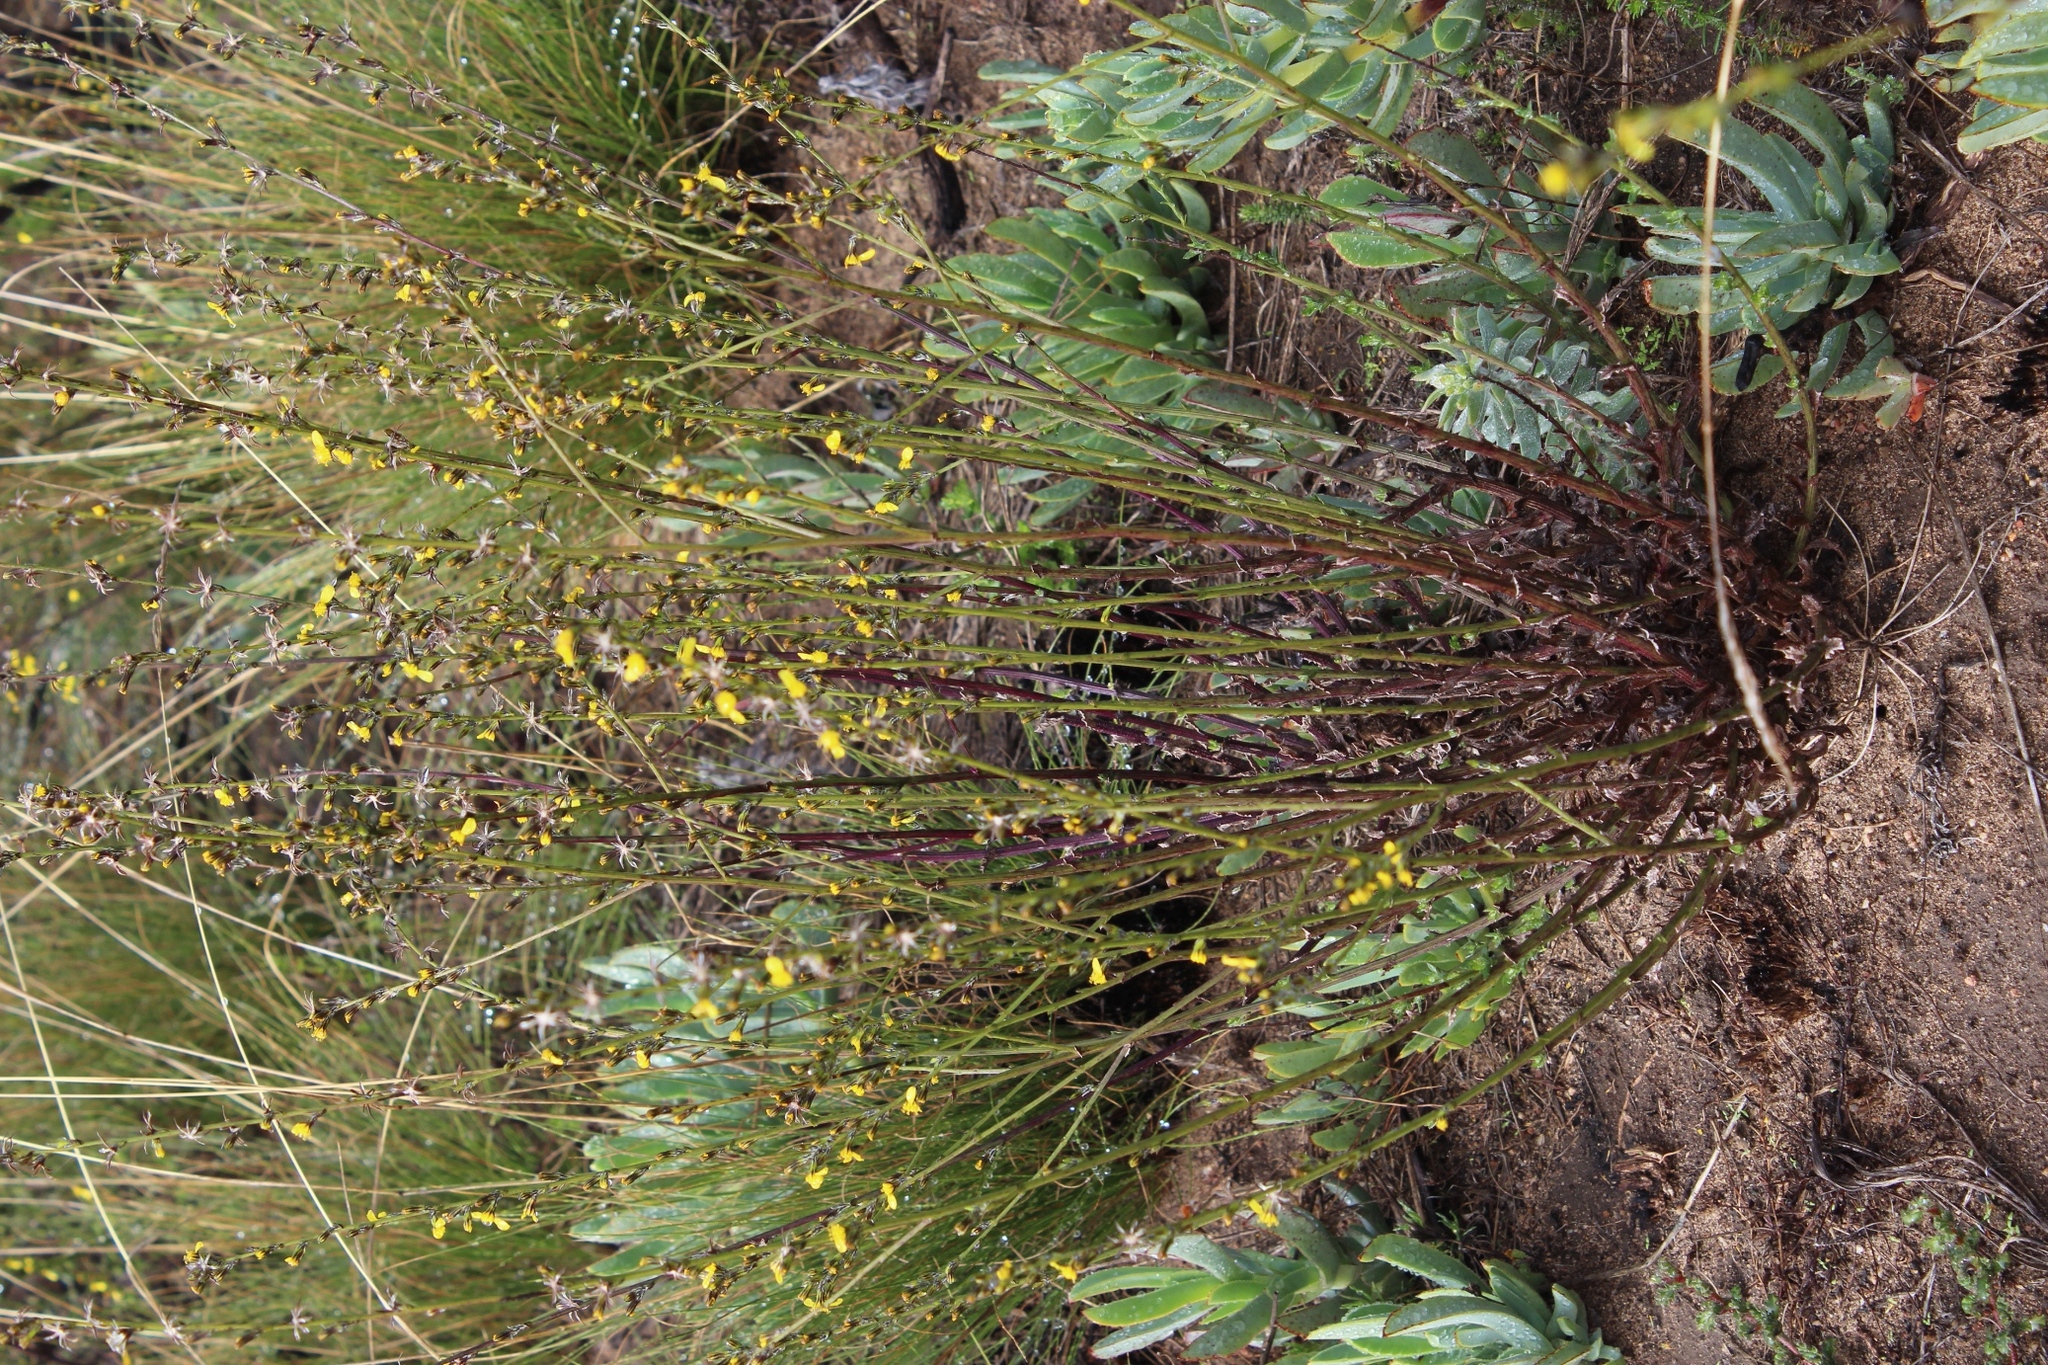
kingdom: Plantae
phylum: Tracheophyta
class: Magnoliopsida
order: Asterales
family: Asteraceae
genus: Senecio
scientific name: Senecio pubigerus
